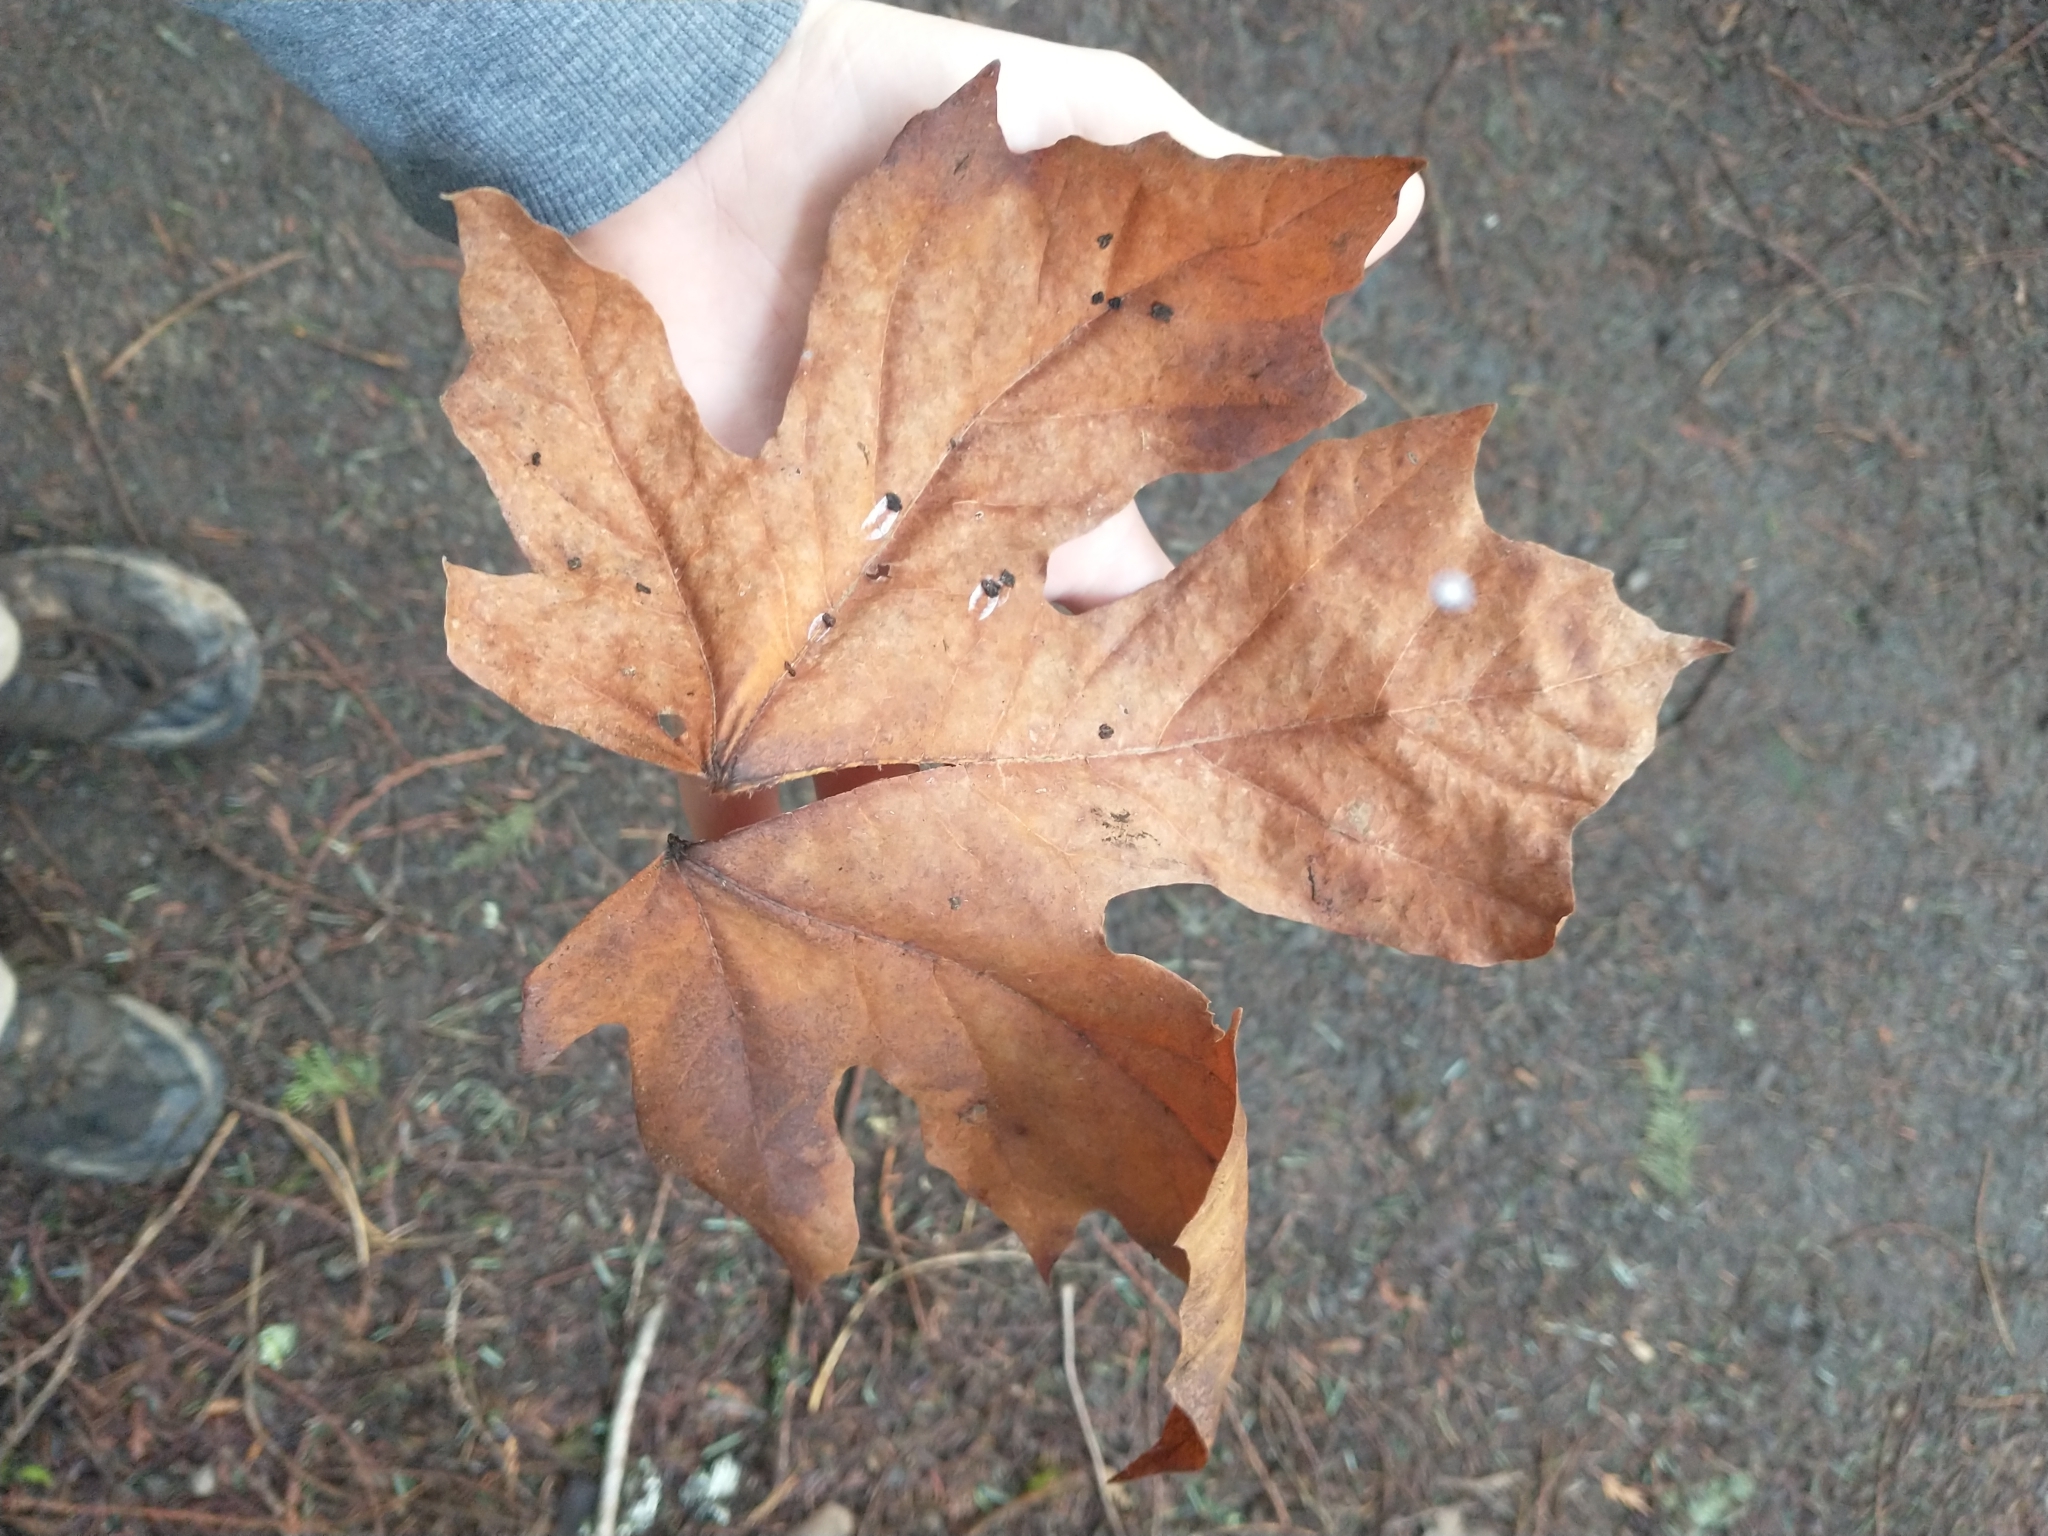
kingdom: Plantae
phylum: Tracheophyta
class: Magnoliopsida
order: Sapindales
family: Sapindaceae
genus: Acer
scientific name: Acer macrophyllum
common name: Oregon maple
